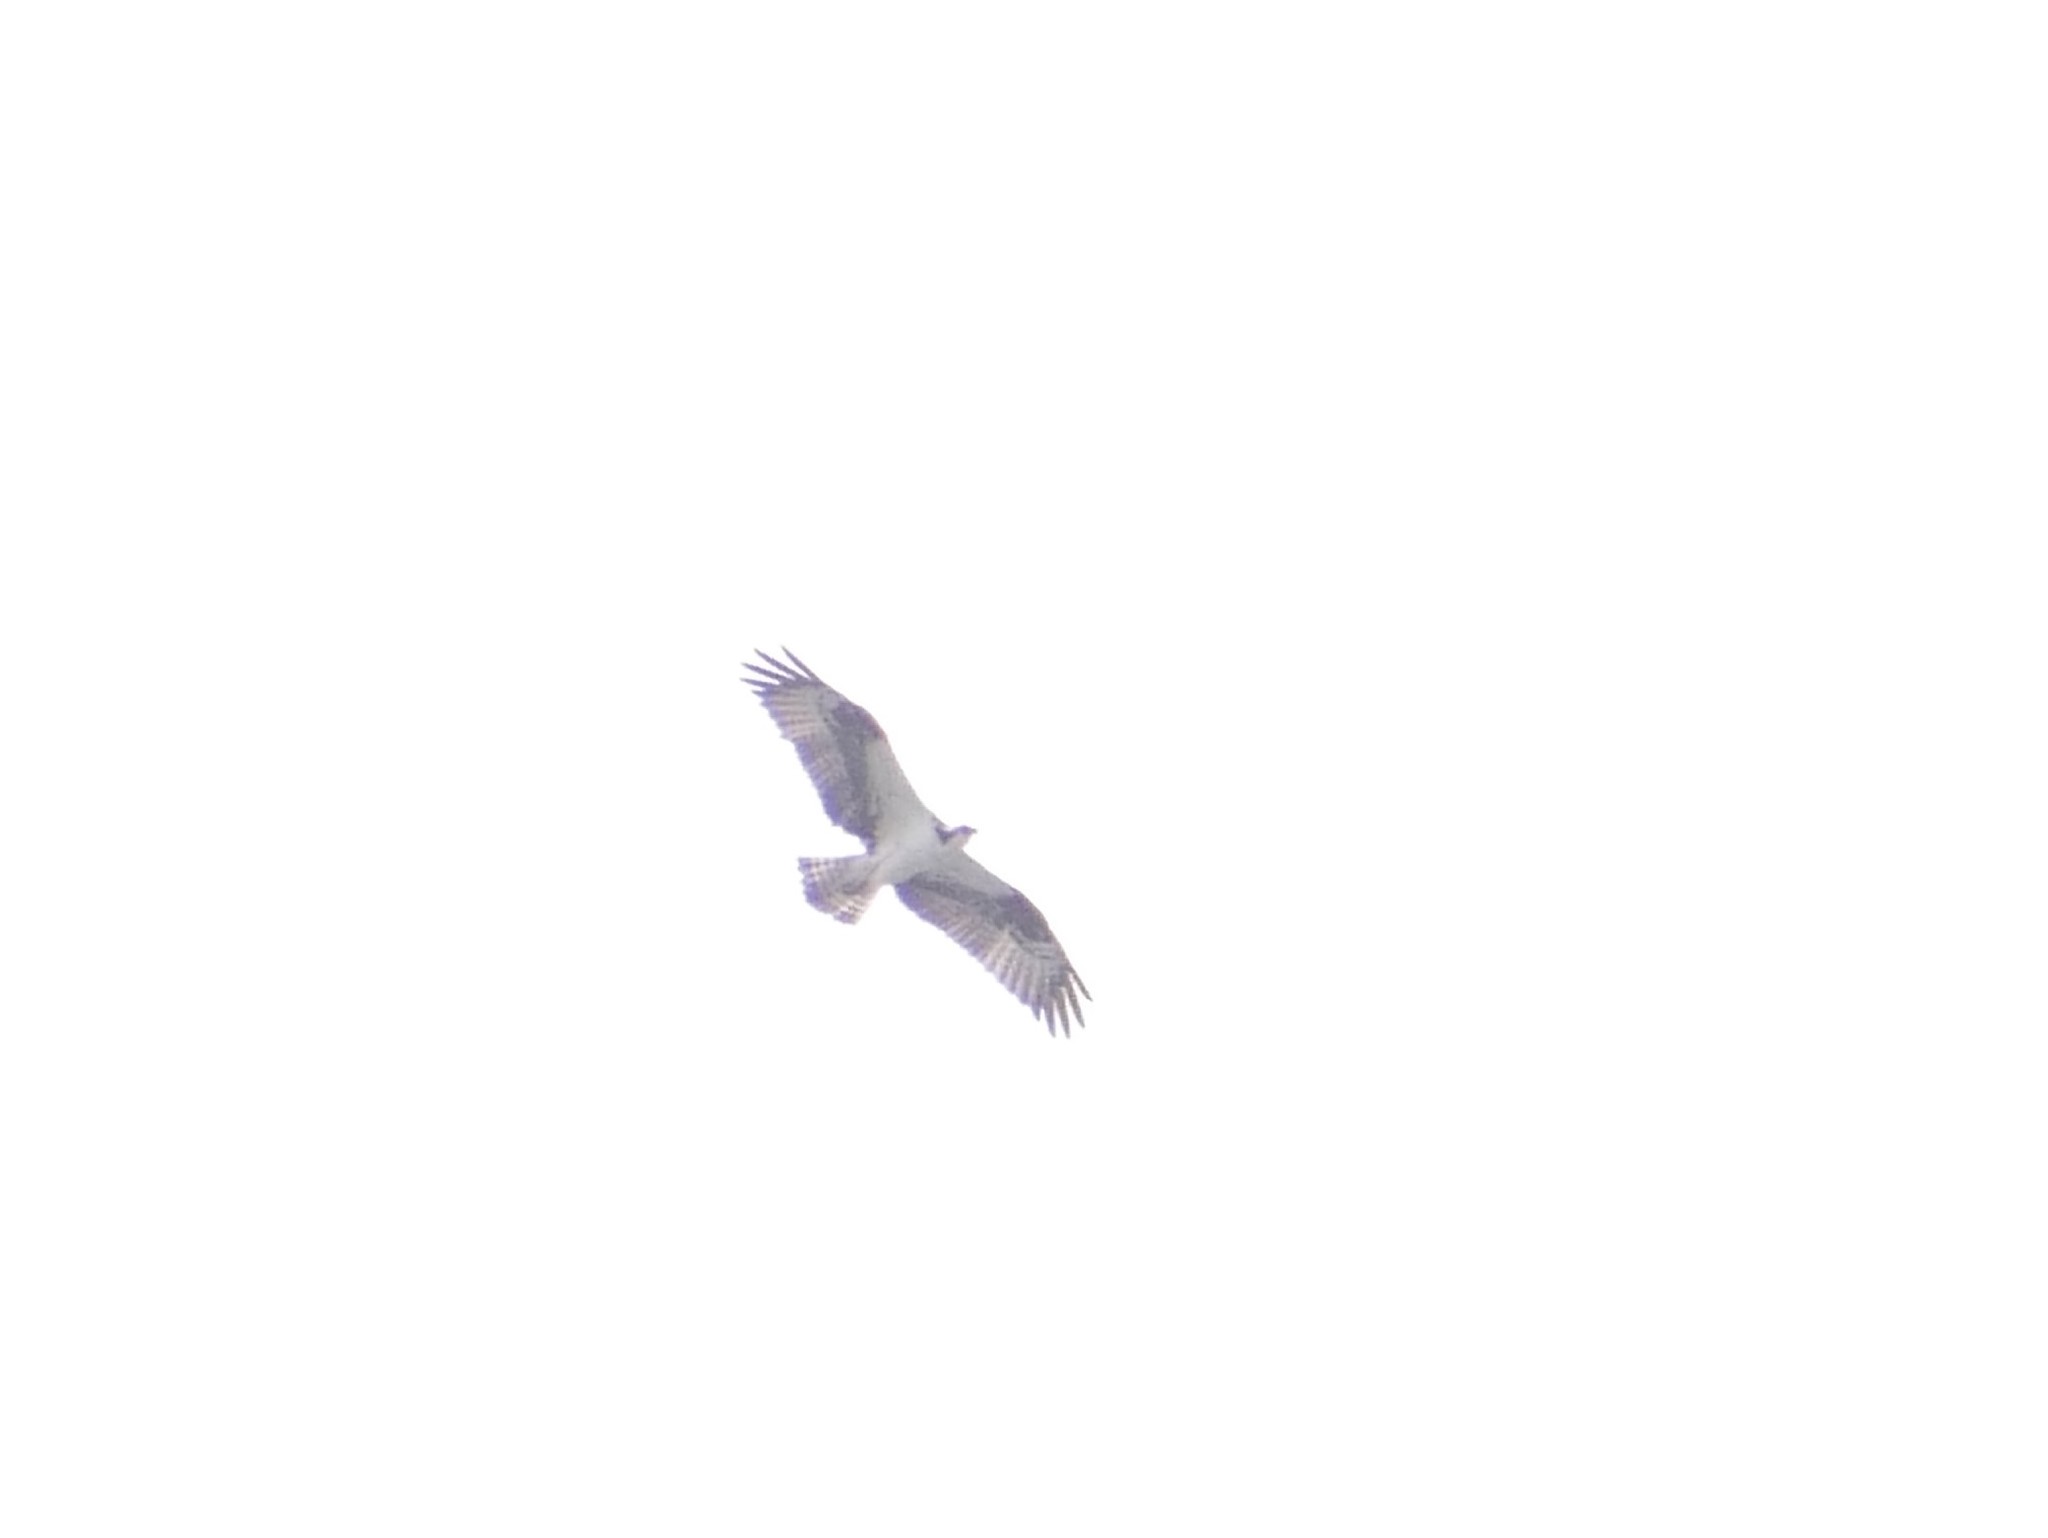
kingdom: Animalia
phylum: Chordata
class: Aves
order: Accipitriformes
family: Pandionidae
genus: Pandion
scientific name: Pandion haliaetus
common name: Osprey
